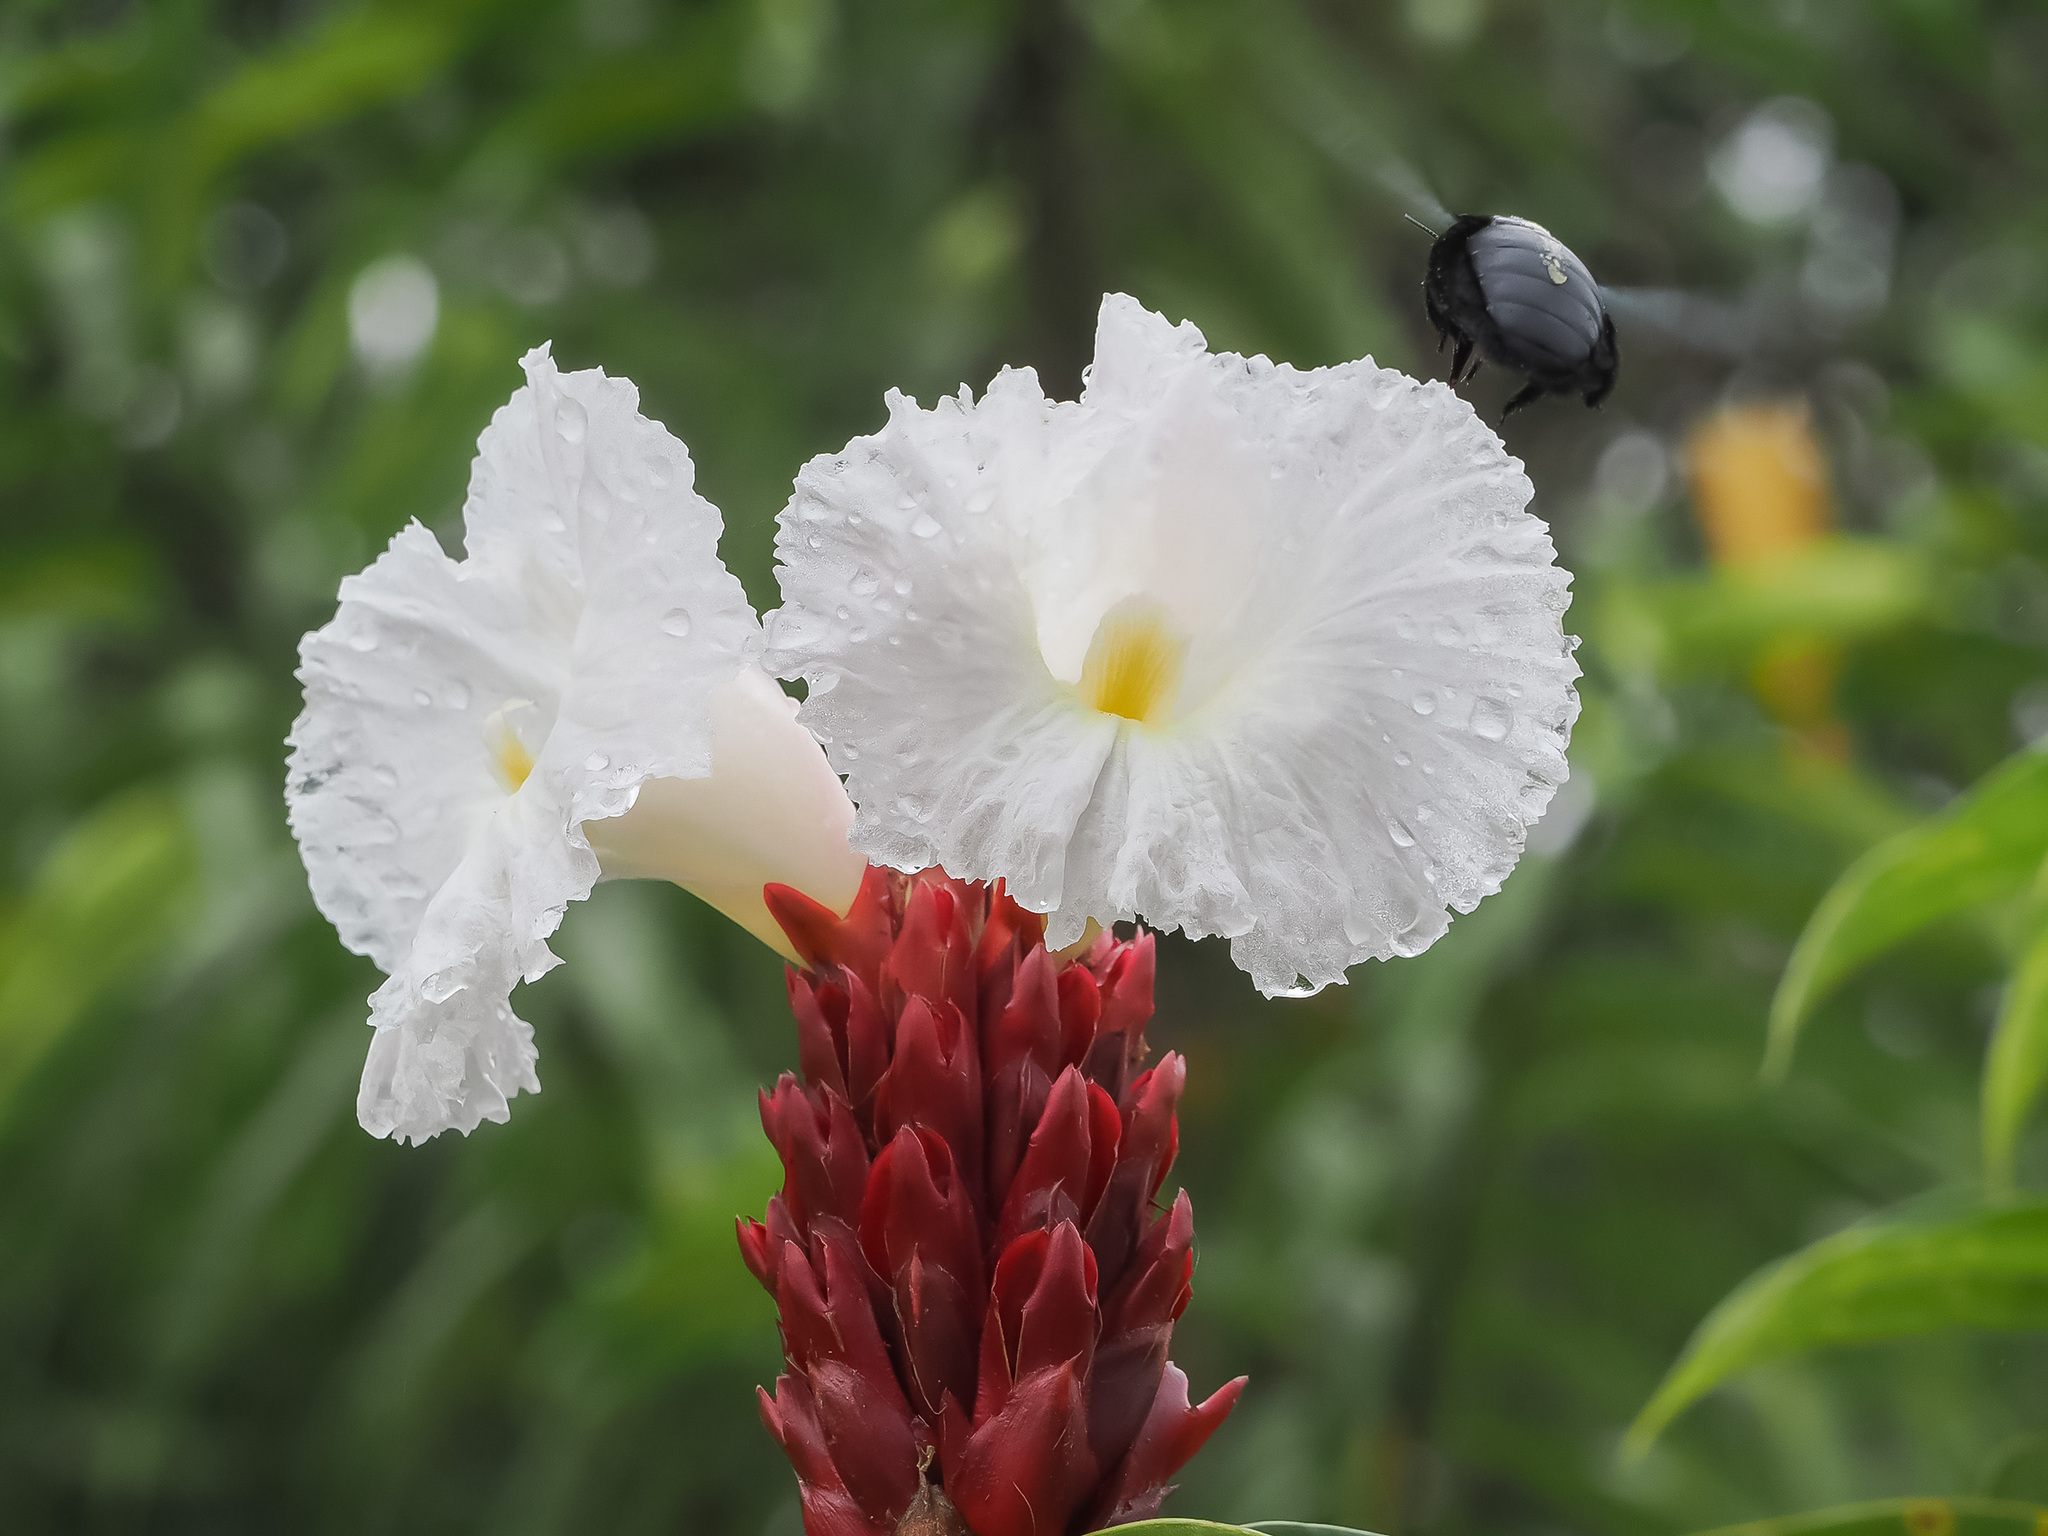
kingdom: Plantae
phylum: Tracheophyta
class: Liliopsida
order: Zingiberales
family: Costaceae
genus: Hellenia
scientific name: Hellenia speciosa
